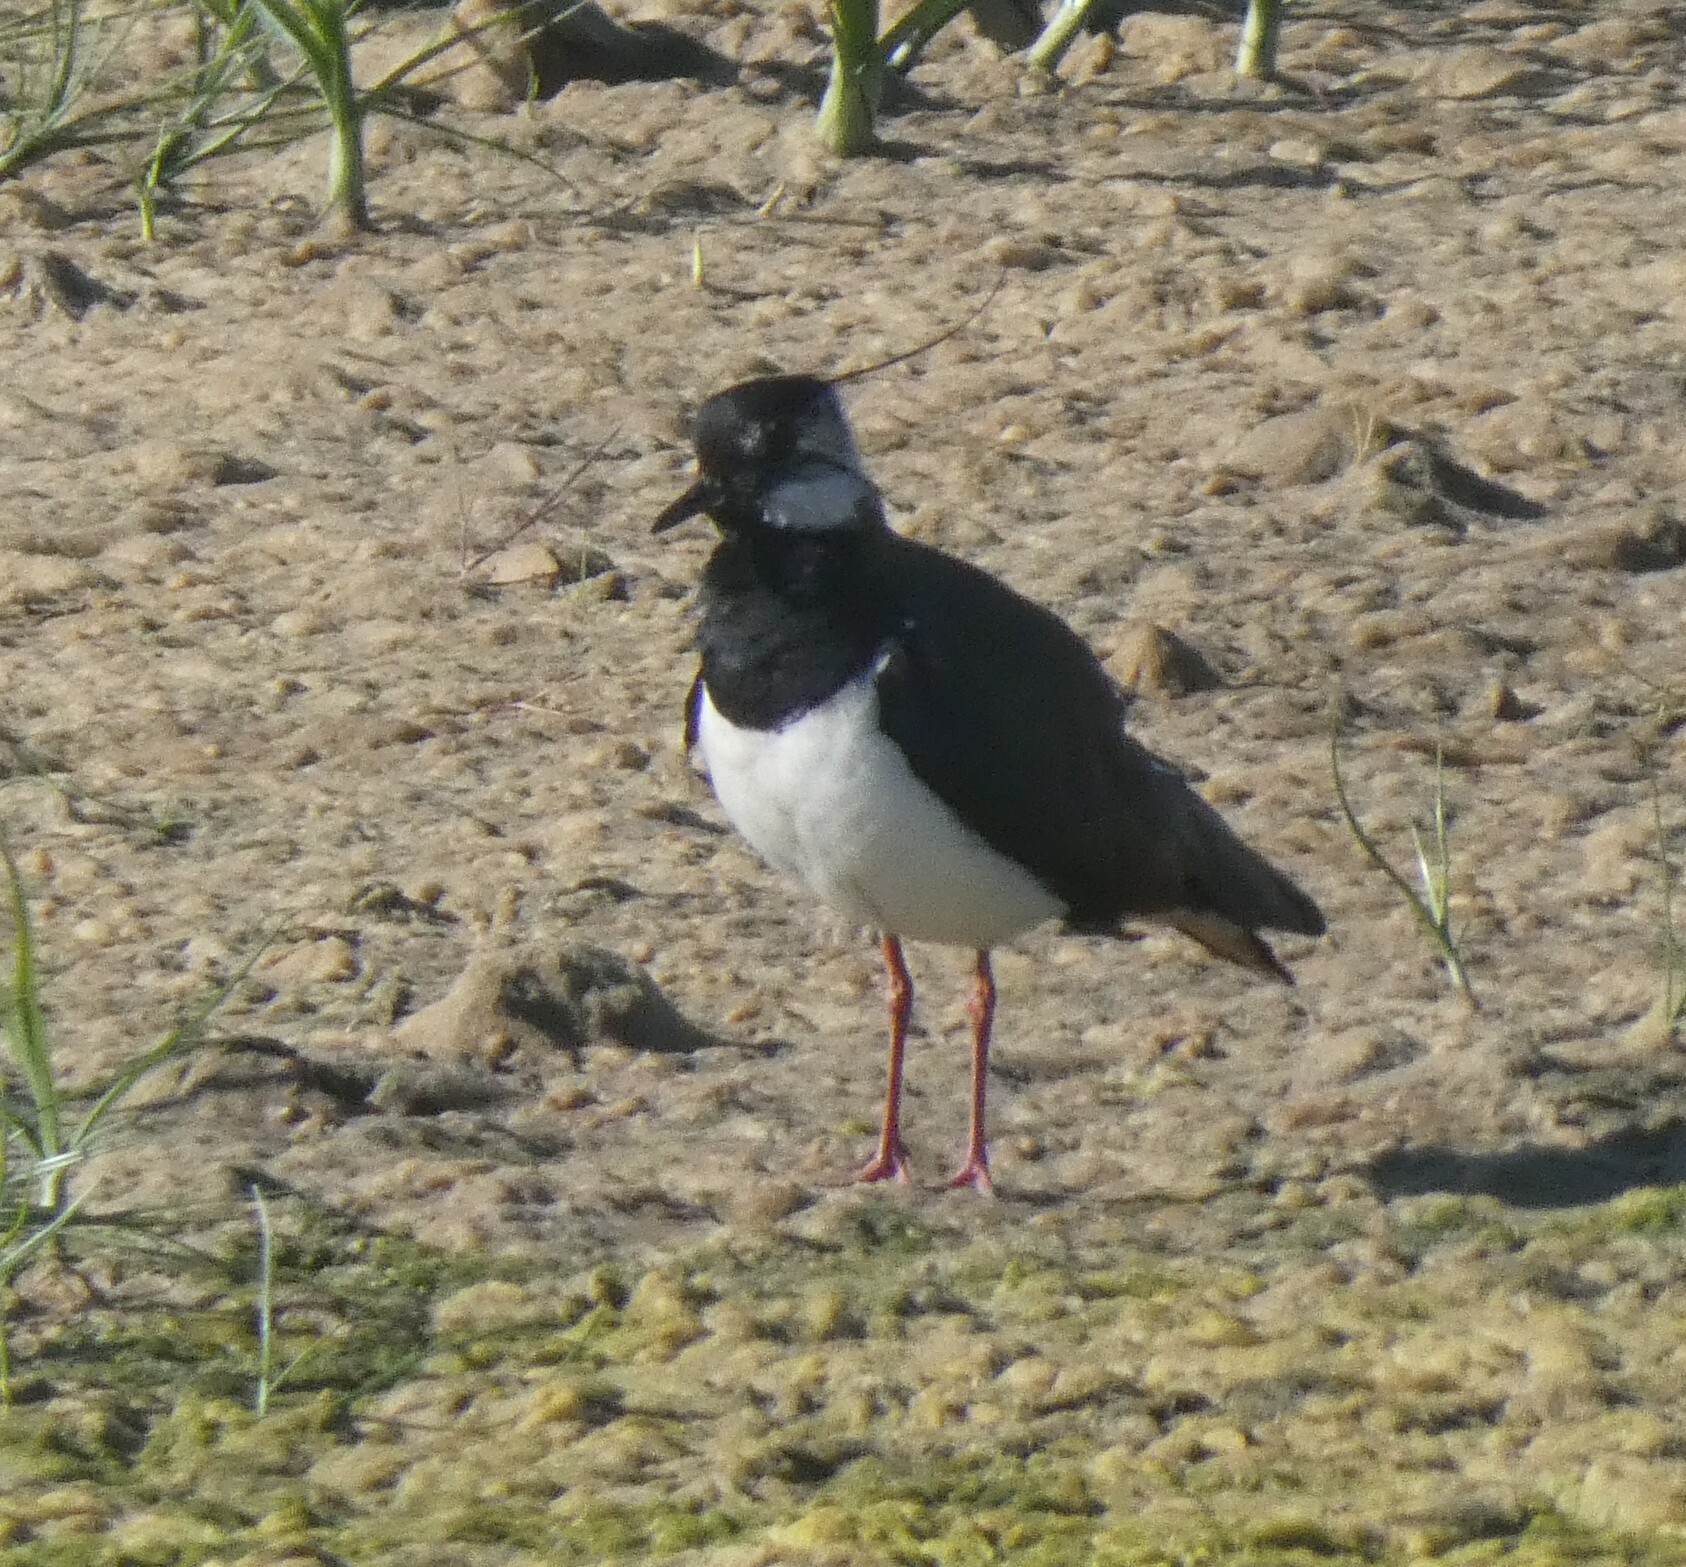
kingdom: Animalia
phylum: Chordata
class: Aves
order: Charadriiformes
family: Charadriidae
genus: Vanellus
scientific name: Vanellus vanellus
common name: Northern lapwing
